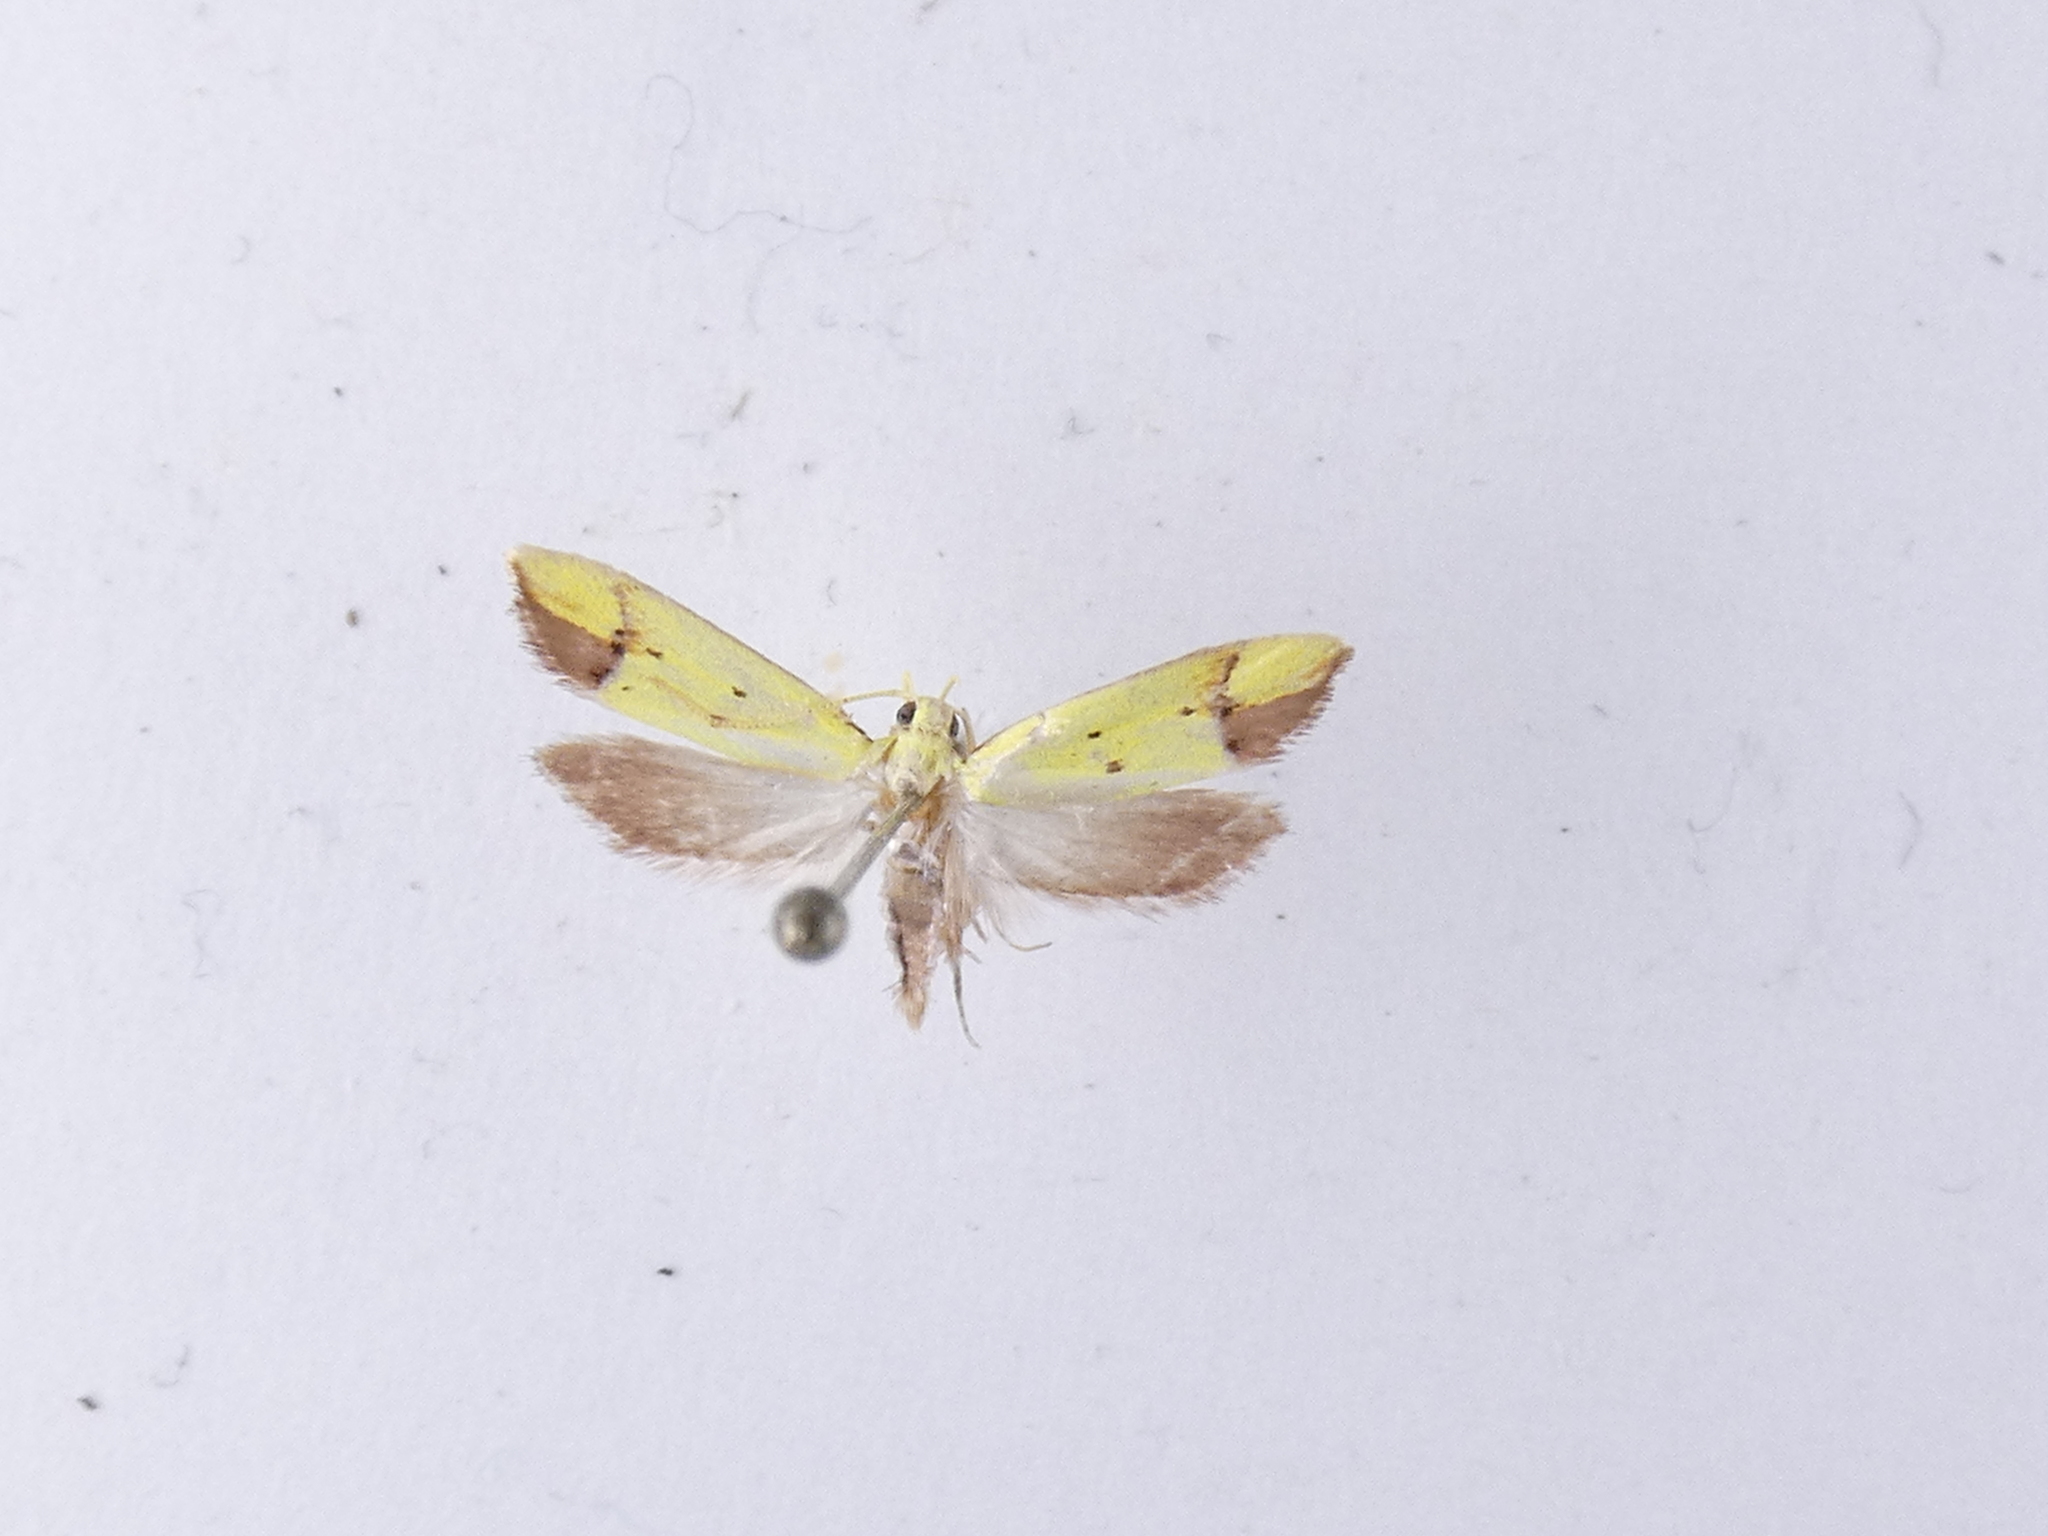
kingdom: Animalia
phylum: Arthropoda
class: Insecta
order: Lepidoptera
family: Oecophoridae
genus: Gymnobathra
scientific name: Gymnobathra flavidella
